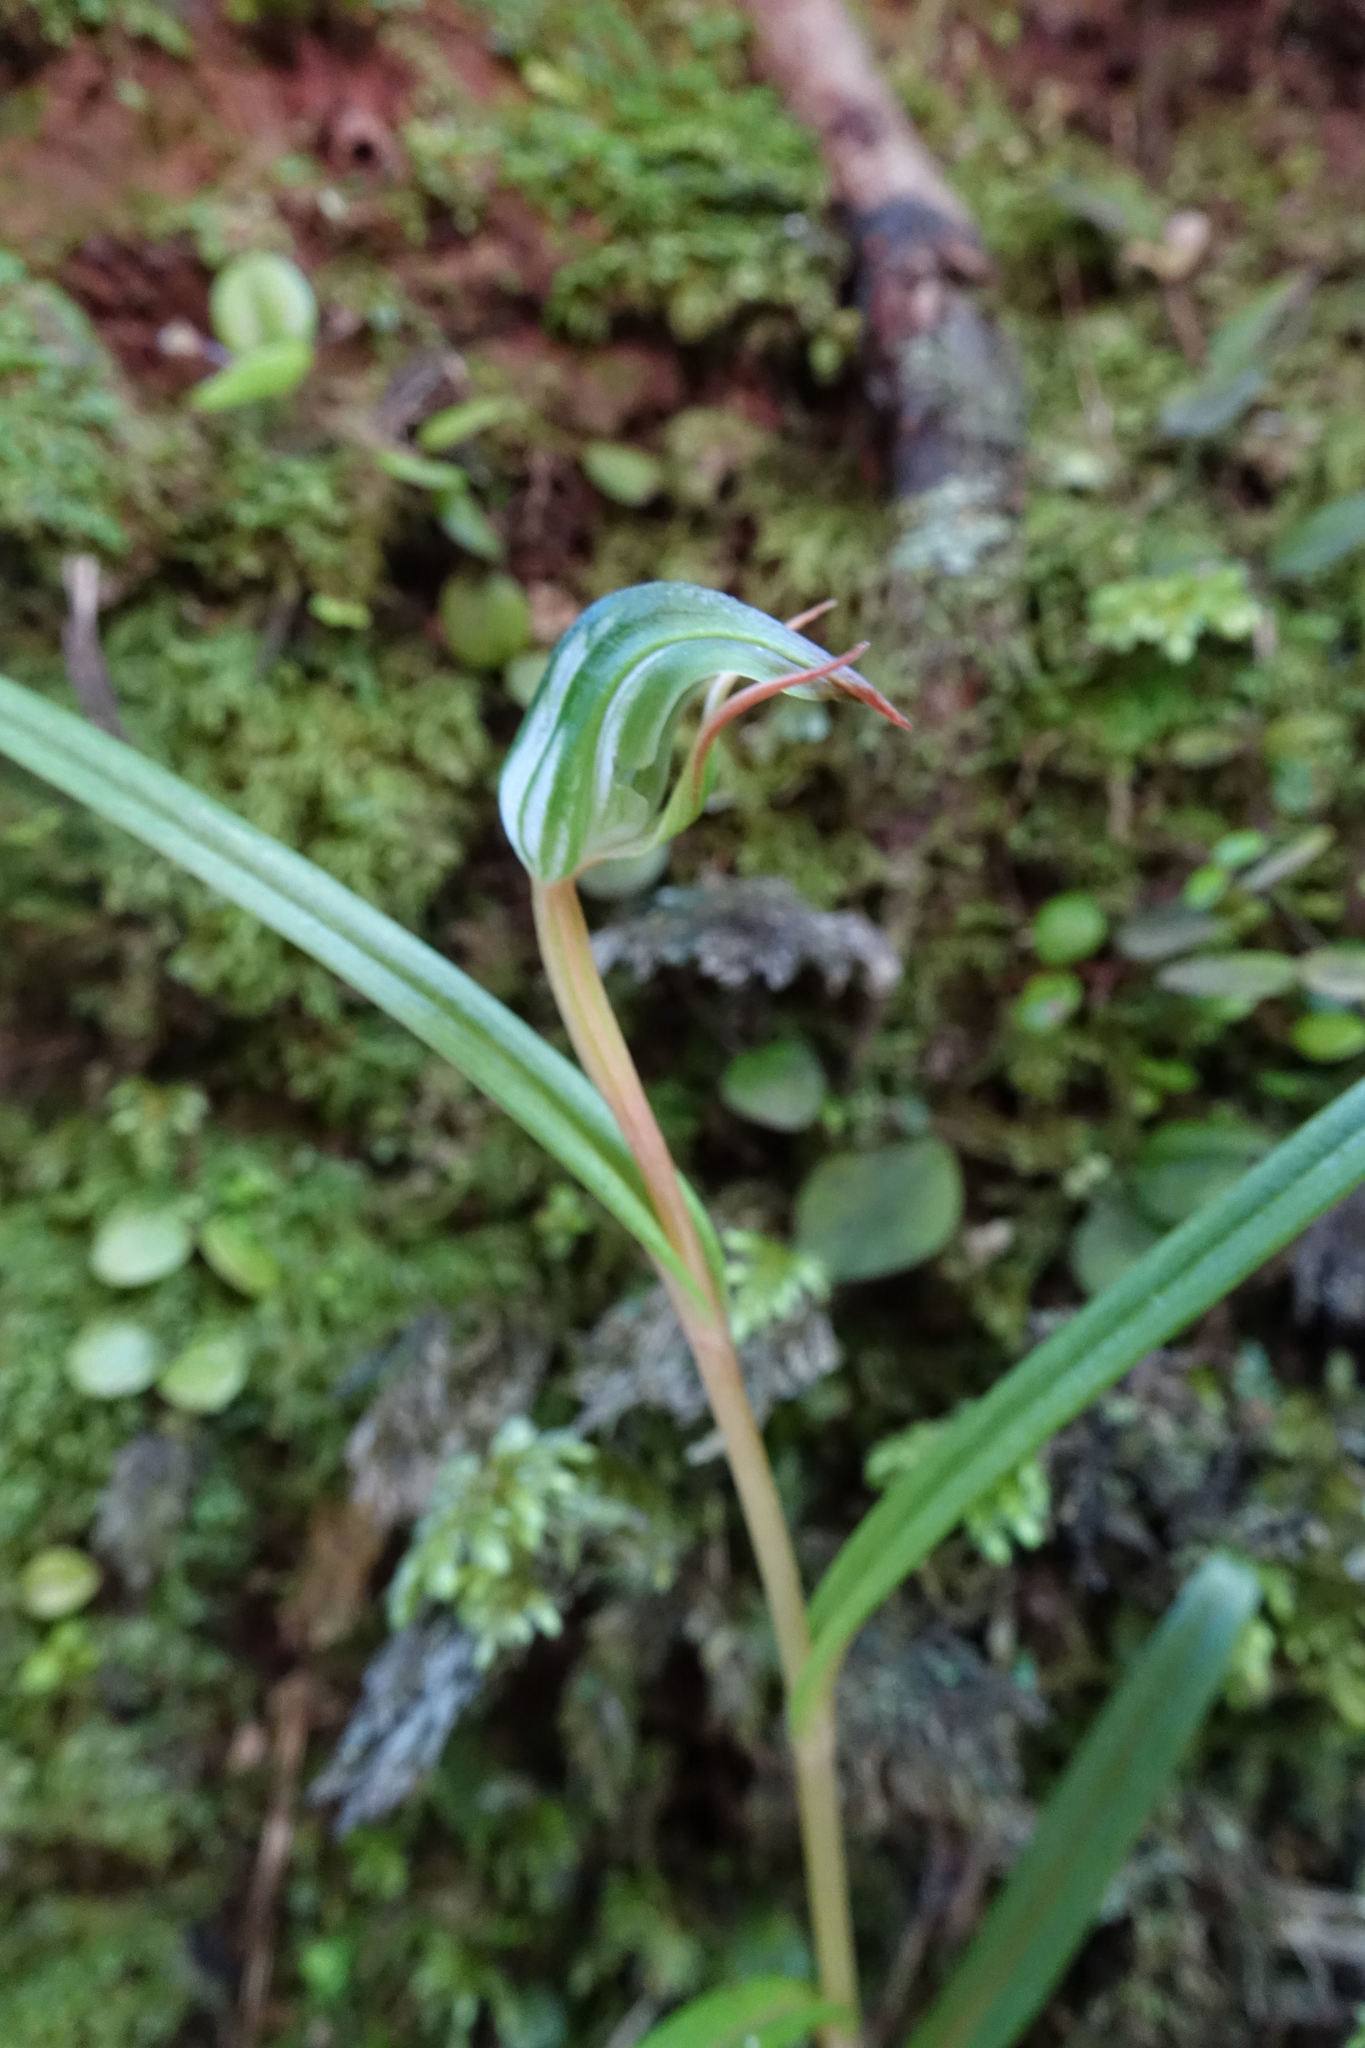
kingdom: Plantae
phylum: Tracheophyta
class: Liliopsida
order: Asparagales
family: Orchidaceae
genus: Pterostylis
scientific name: Pterostylis graminea
